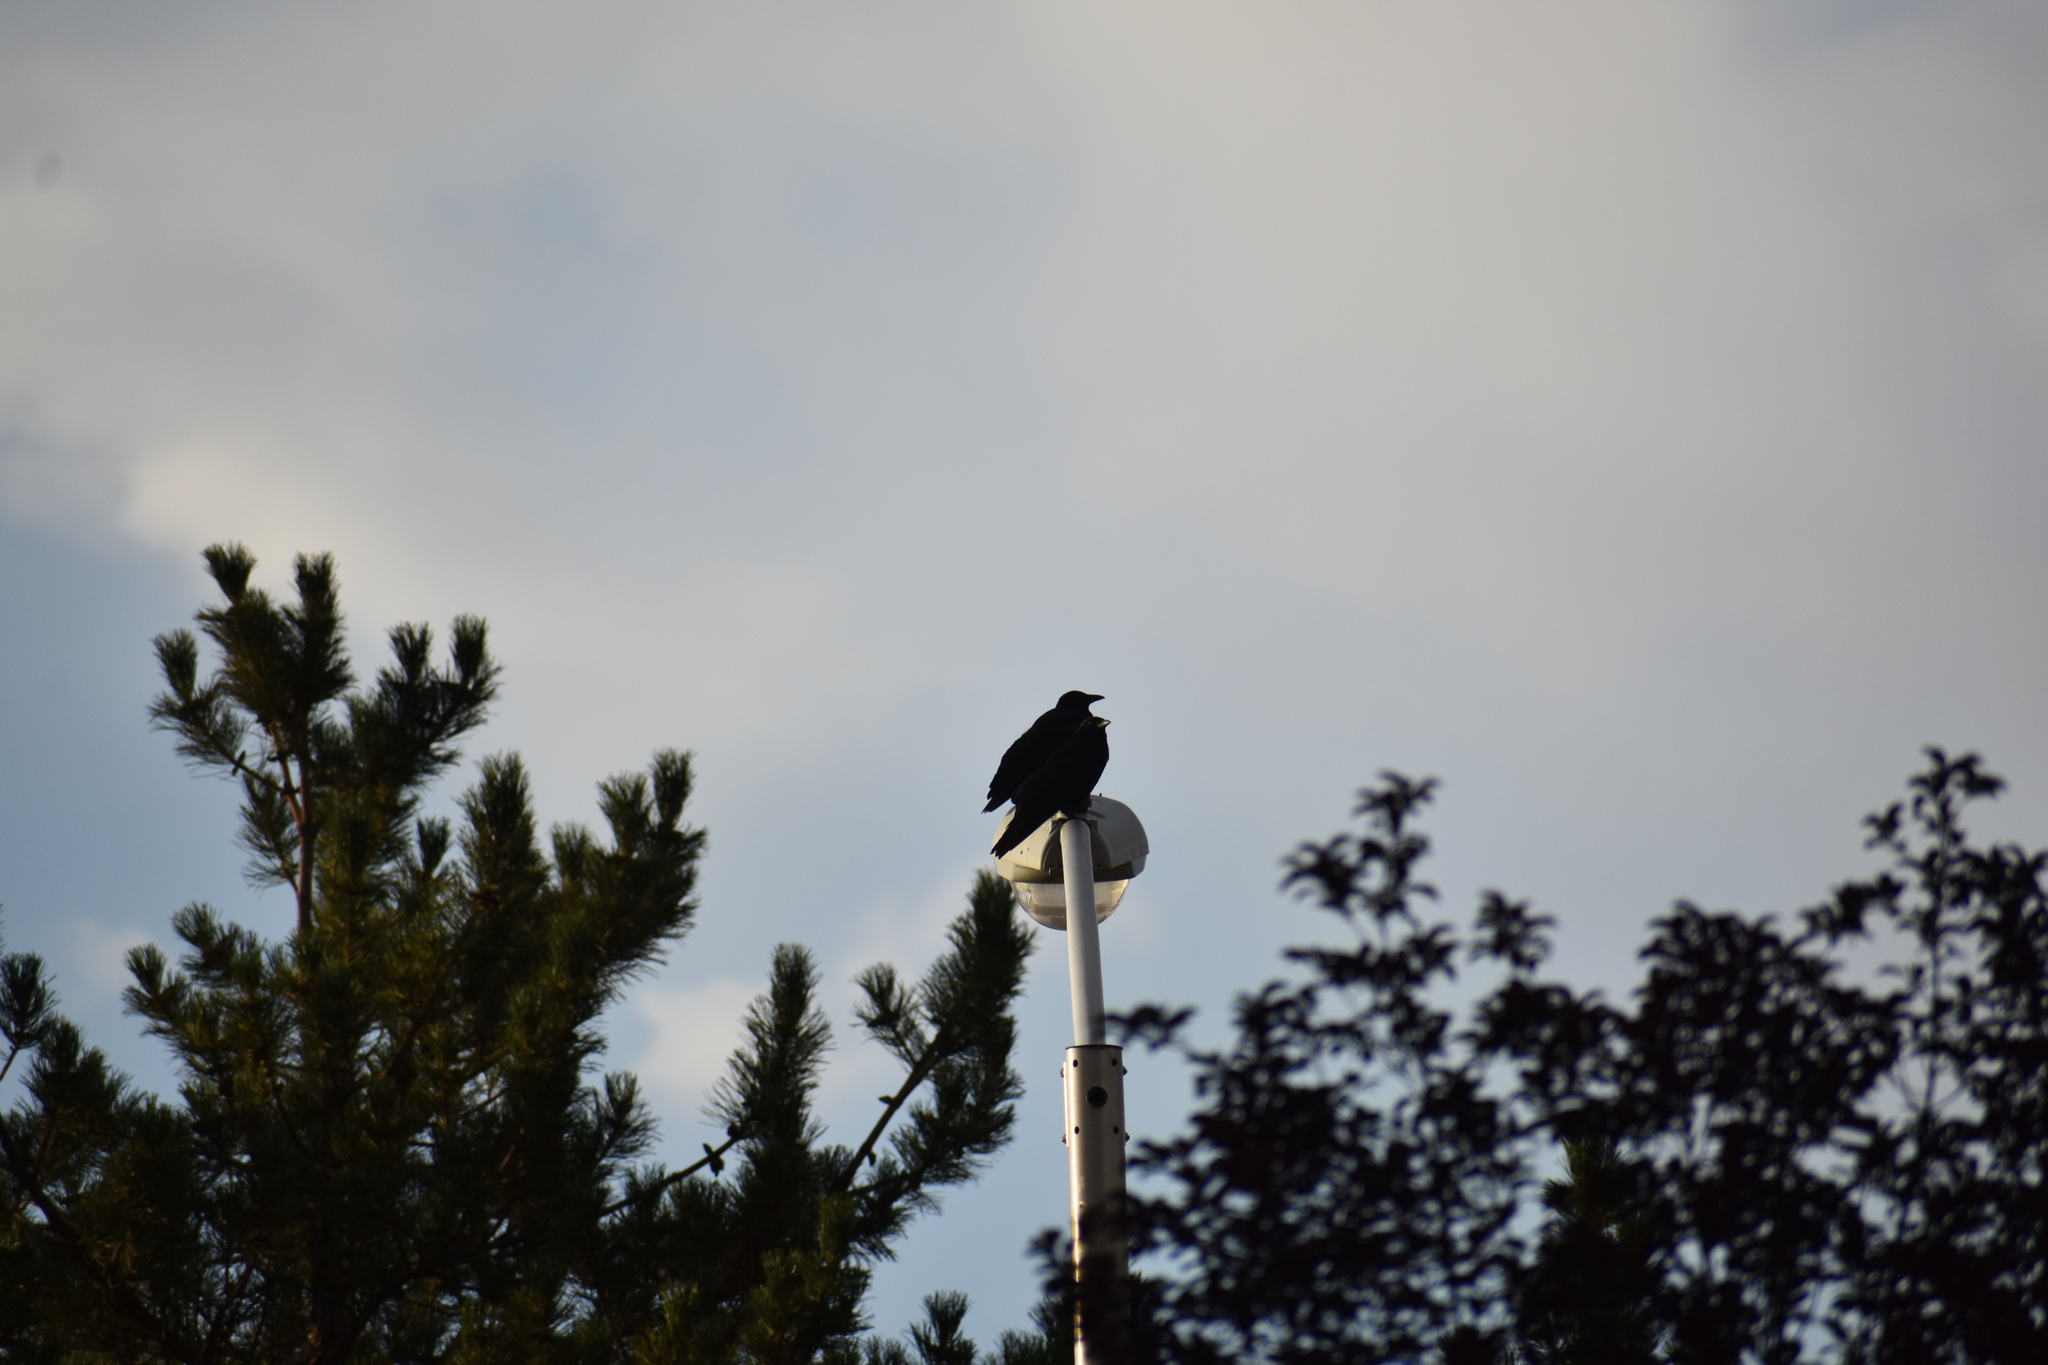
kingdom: Animalia
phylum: Chordata
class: Aves
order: Passeriformes
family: Corvidae
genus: Corvus
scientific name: Corvus brachyrhynchos
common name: American crow
